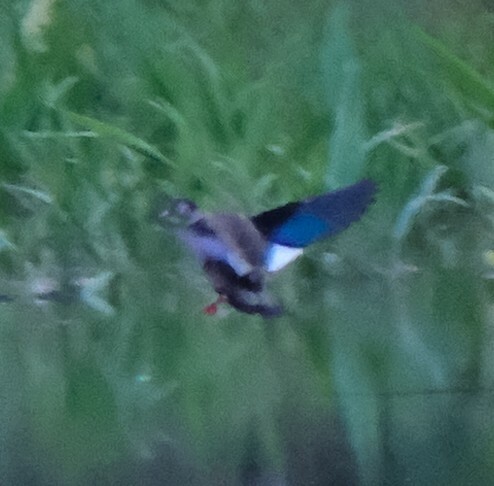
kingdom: Animalia
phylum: Chordata
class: Aves
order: Anseriformes
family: Anatidae
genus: Amazonetta
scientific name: Amazonetta brasiliensis
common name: Brazilian teal
